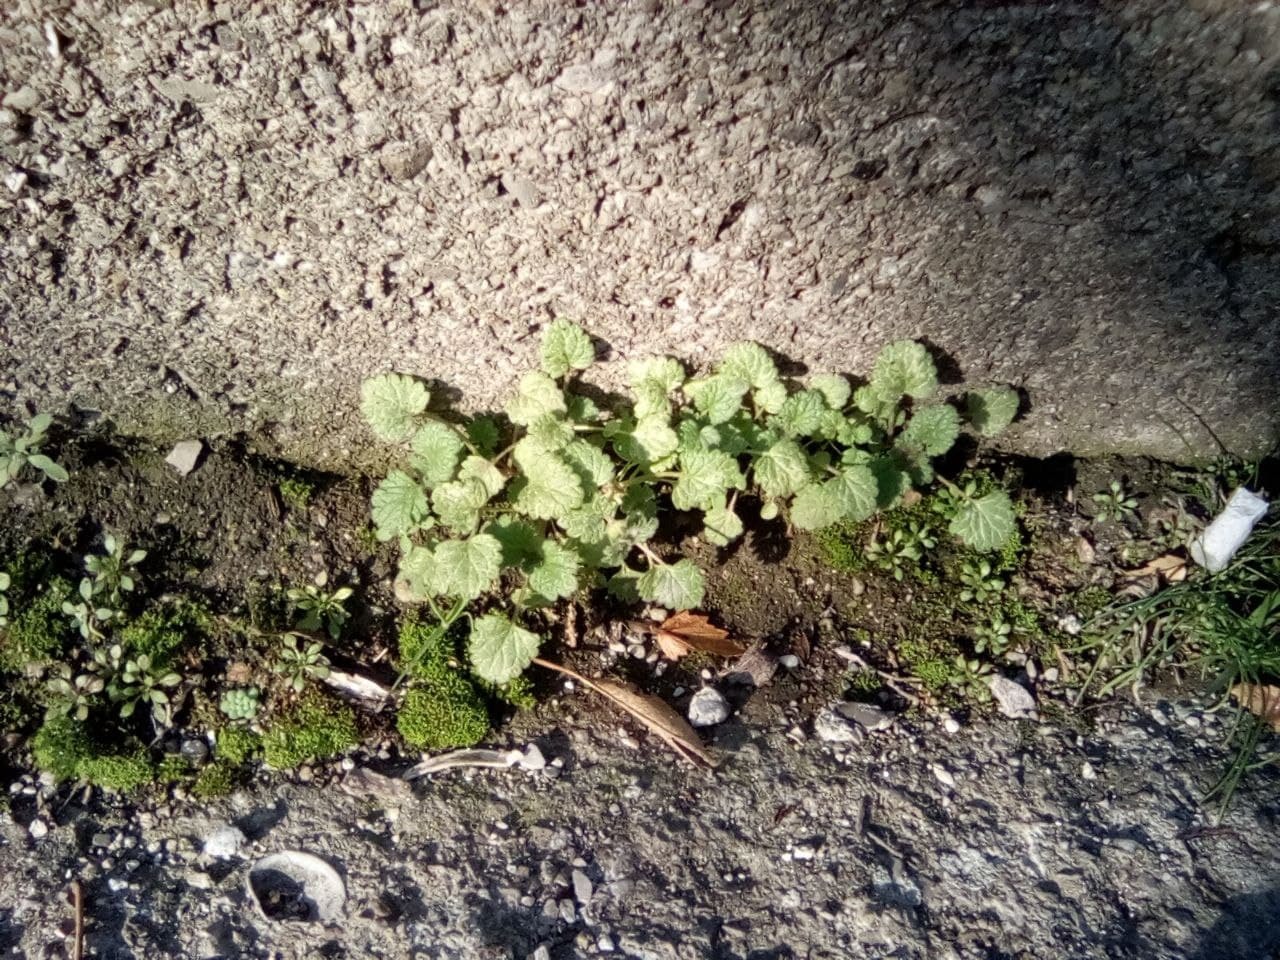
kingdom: Plantae
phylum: Tracheophyta
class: Magnoliopsida
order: Lamiales
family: Lamiaceae
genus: Glechoma
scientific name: Glechoma hederacea
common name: Ground ivy
